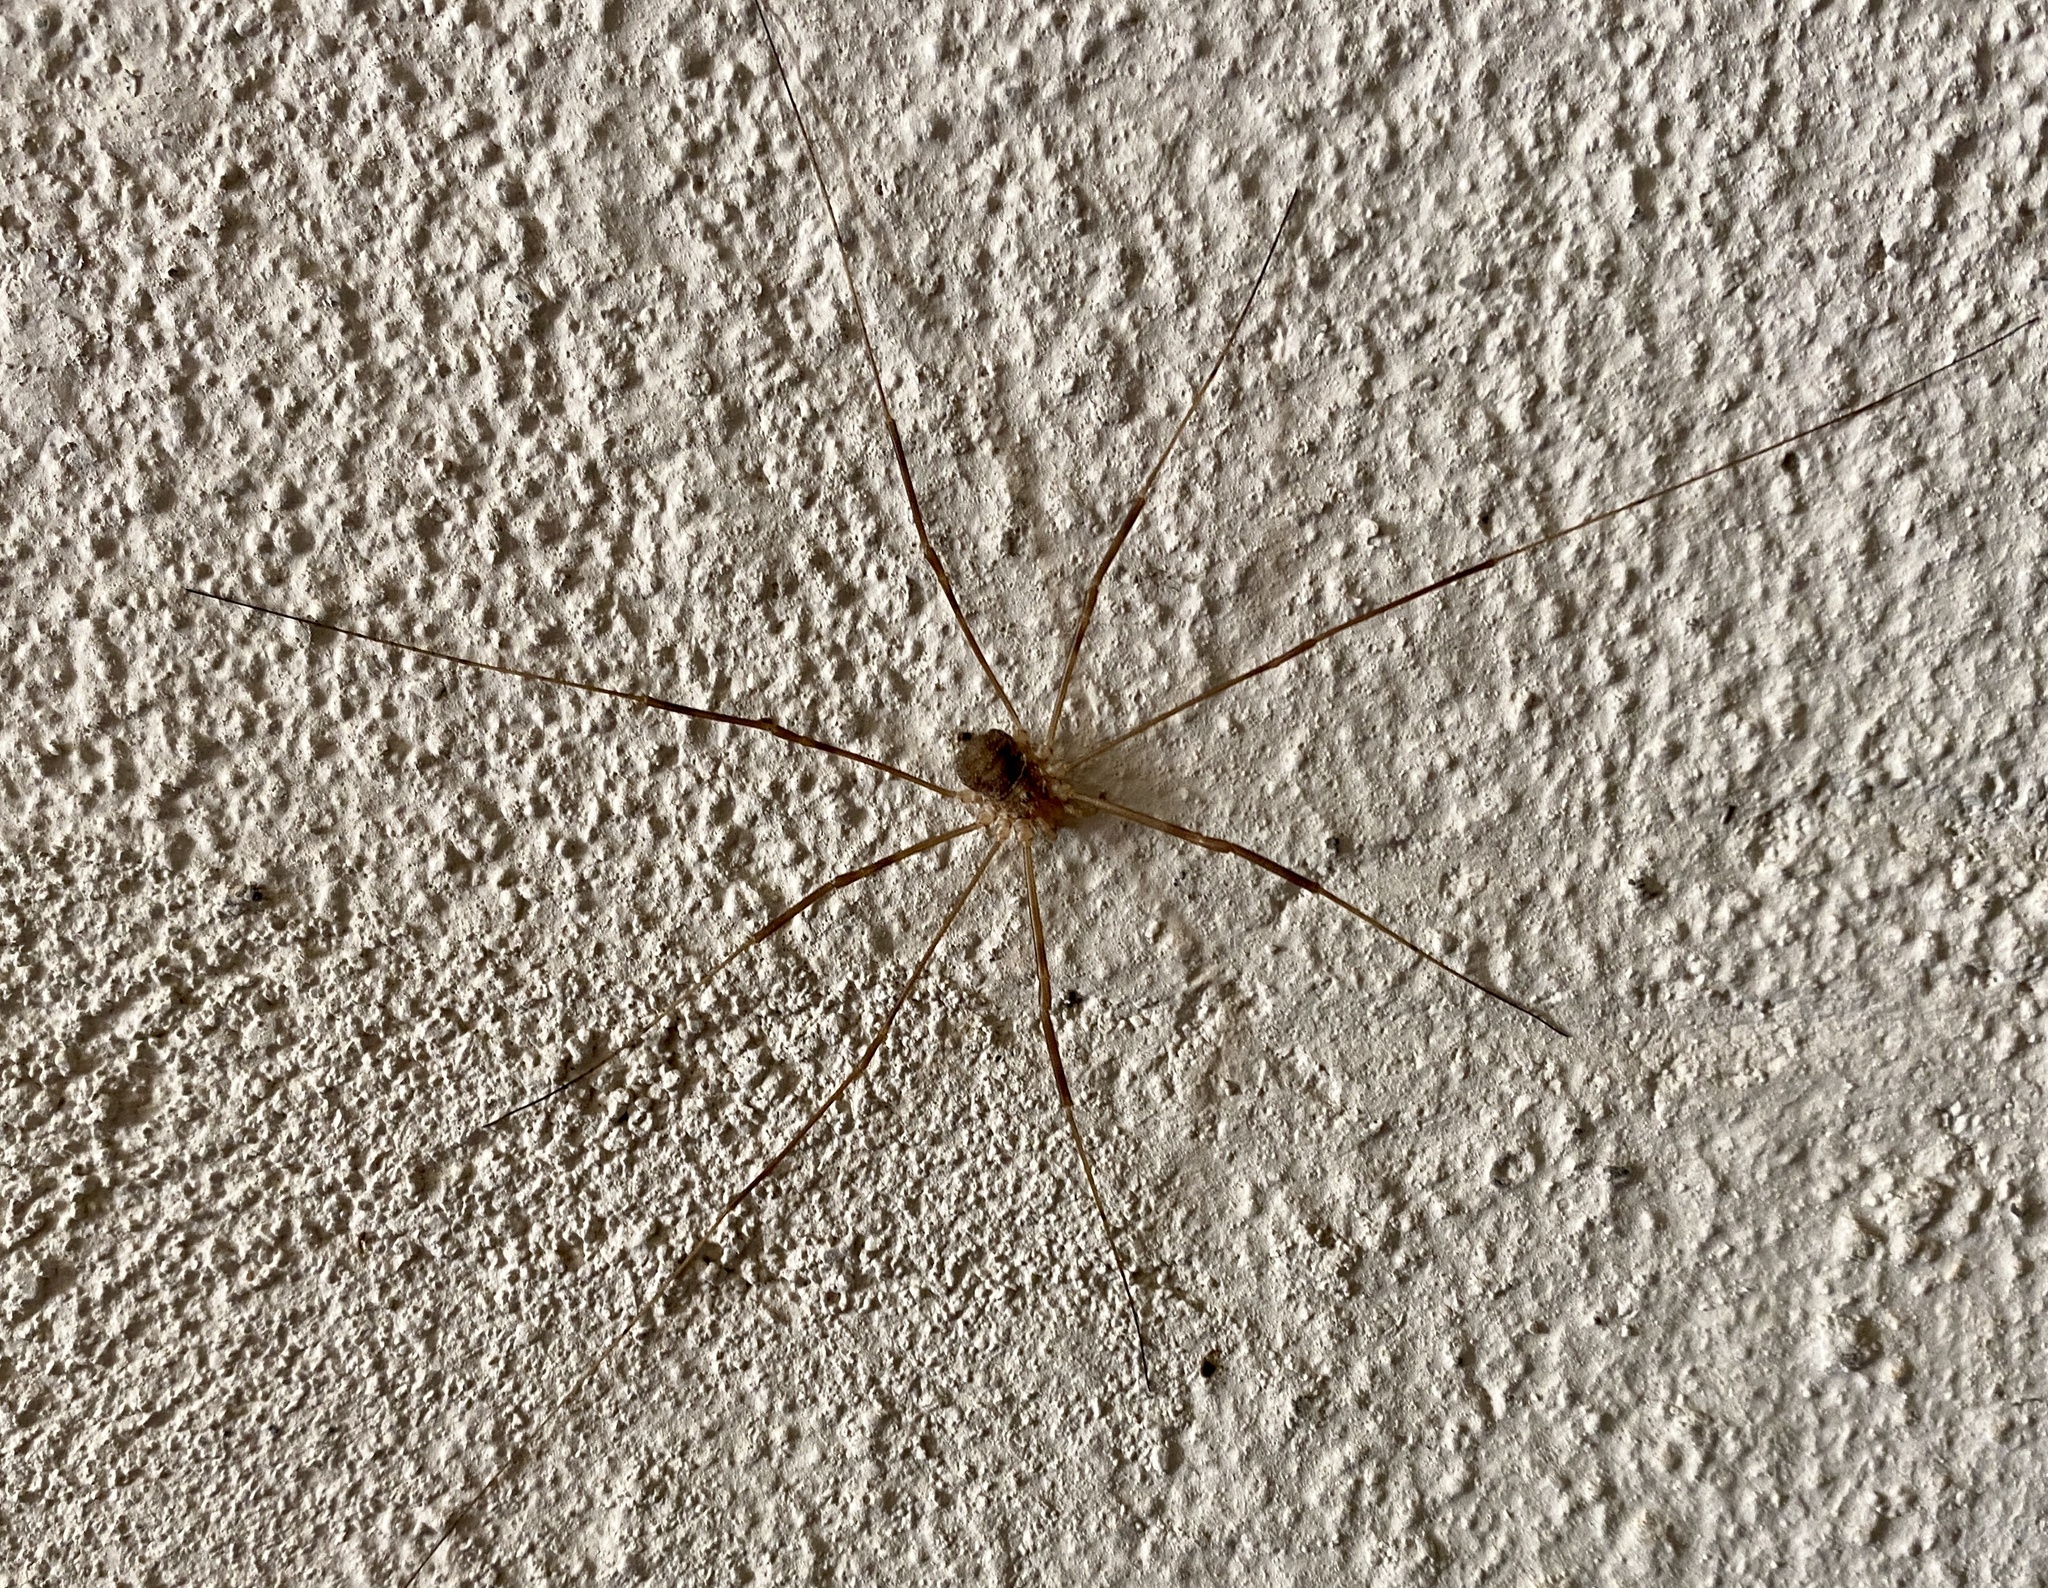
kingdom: Animalia
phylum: Arthropoda
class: Arachnida
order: Opiliones
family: Phalangiidae
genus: Opilio
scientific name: Opilio parietinus
